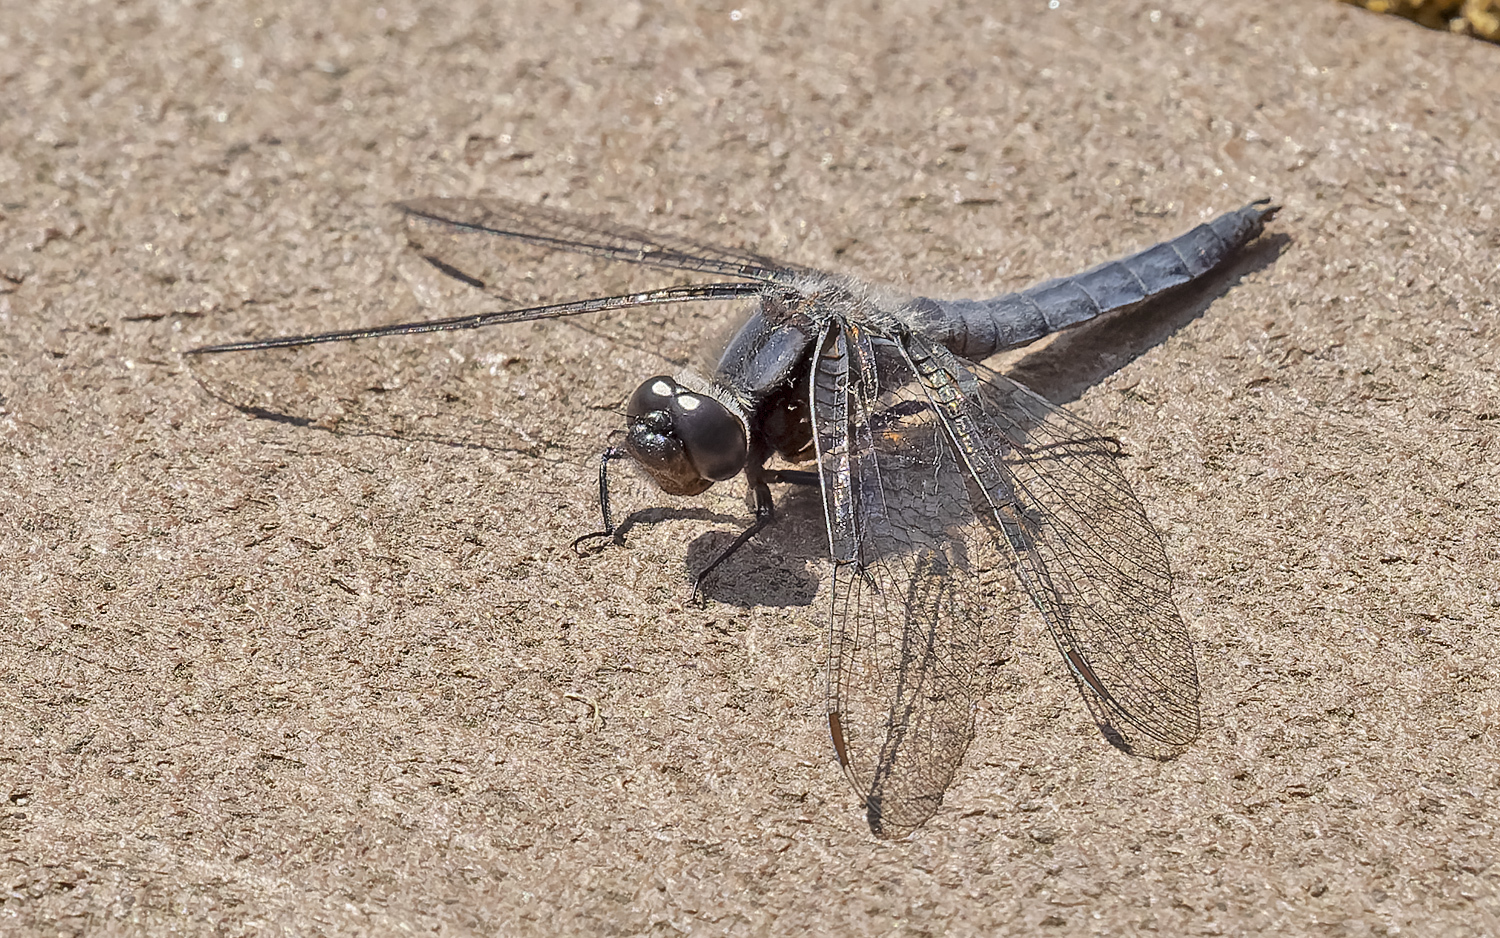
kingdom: Animalia
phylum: Arthropoda
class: Insecta
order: Odonata
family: Libellulidae
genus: Ladona
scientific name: Ladona deplanata
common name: Blue corporal
